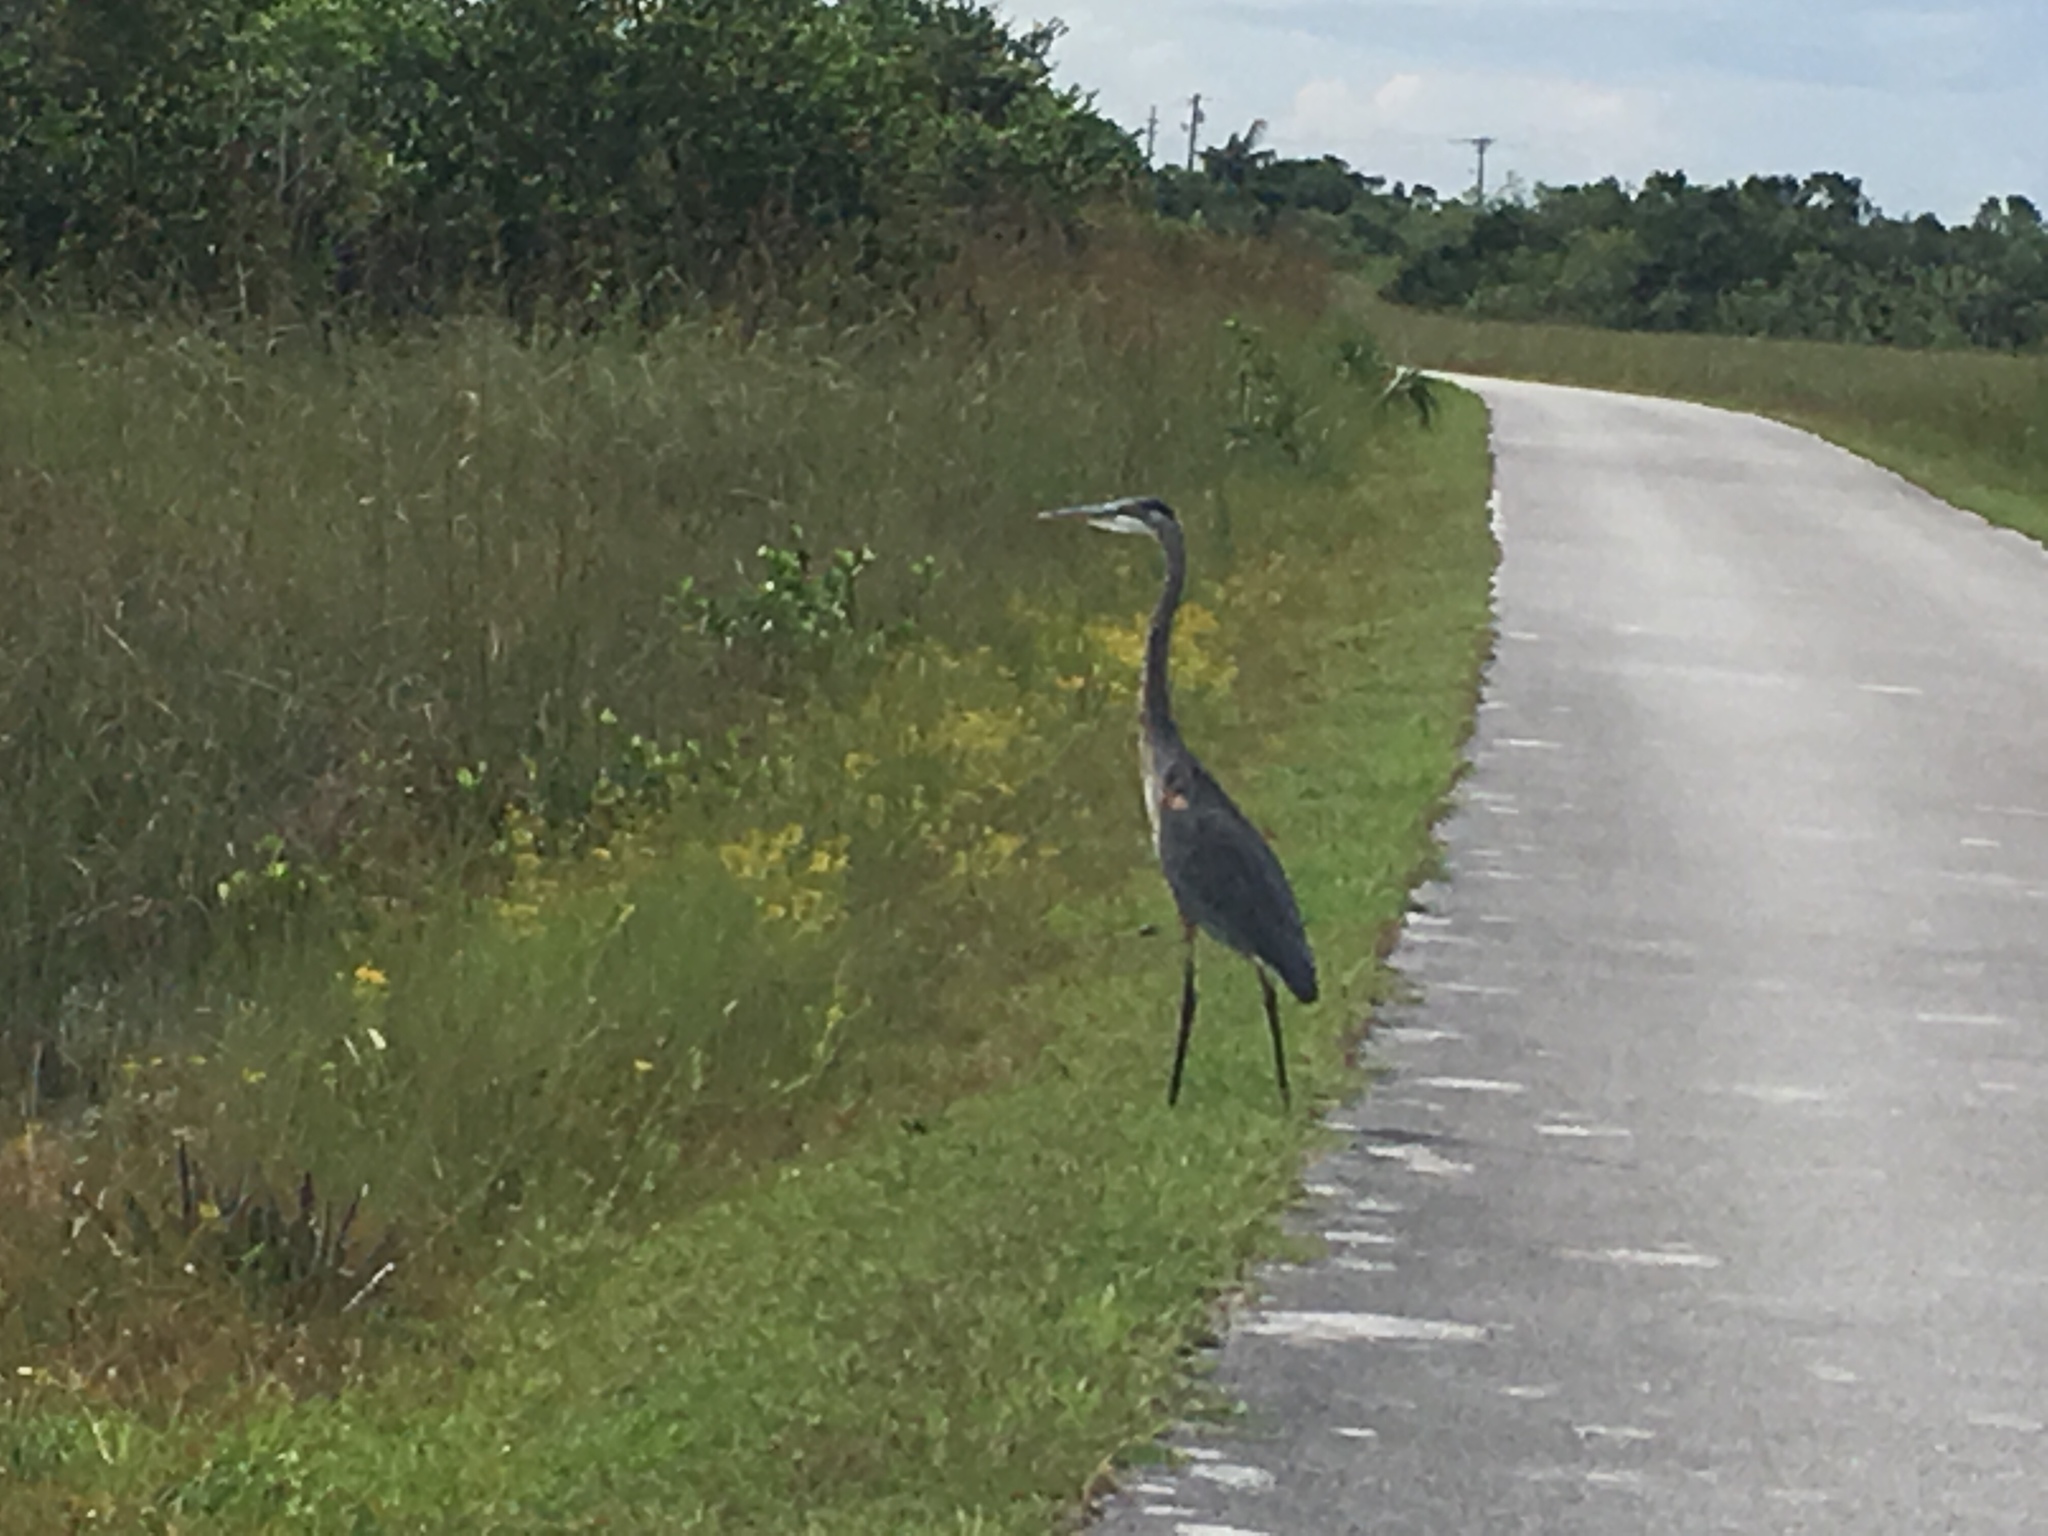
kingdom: Animalia
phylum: Chordata
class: Aves
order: Pelecaniformes
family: Ardeidae
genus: Ardea
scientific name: Ardea herodias
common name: Great blue heron
